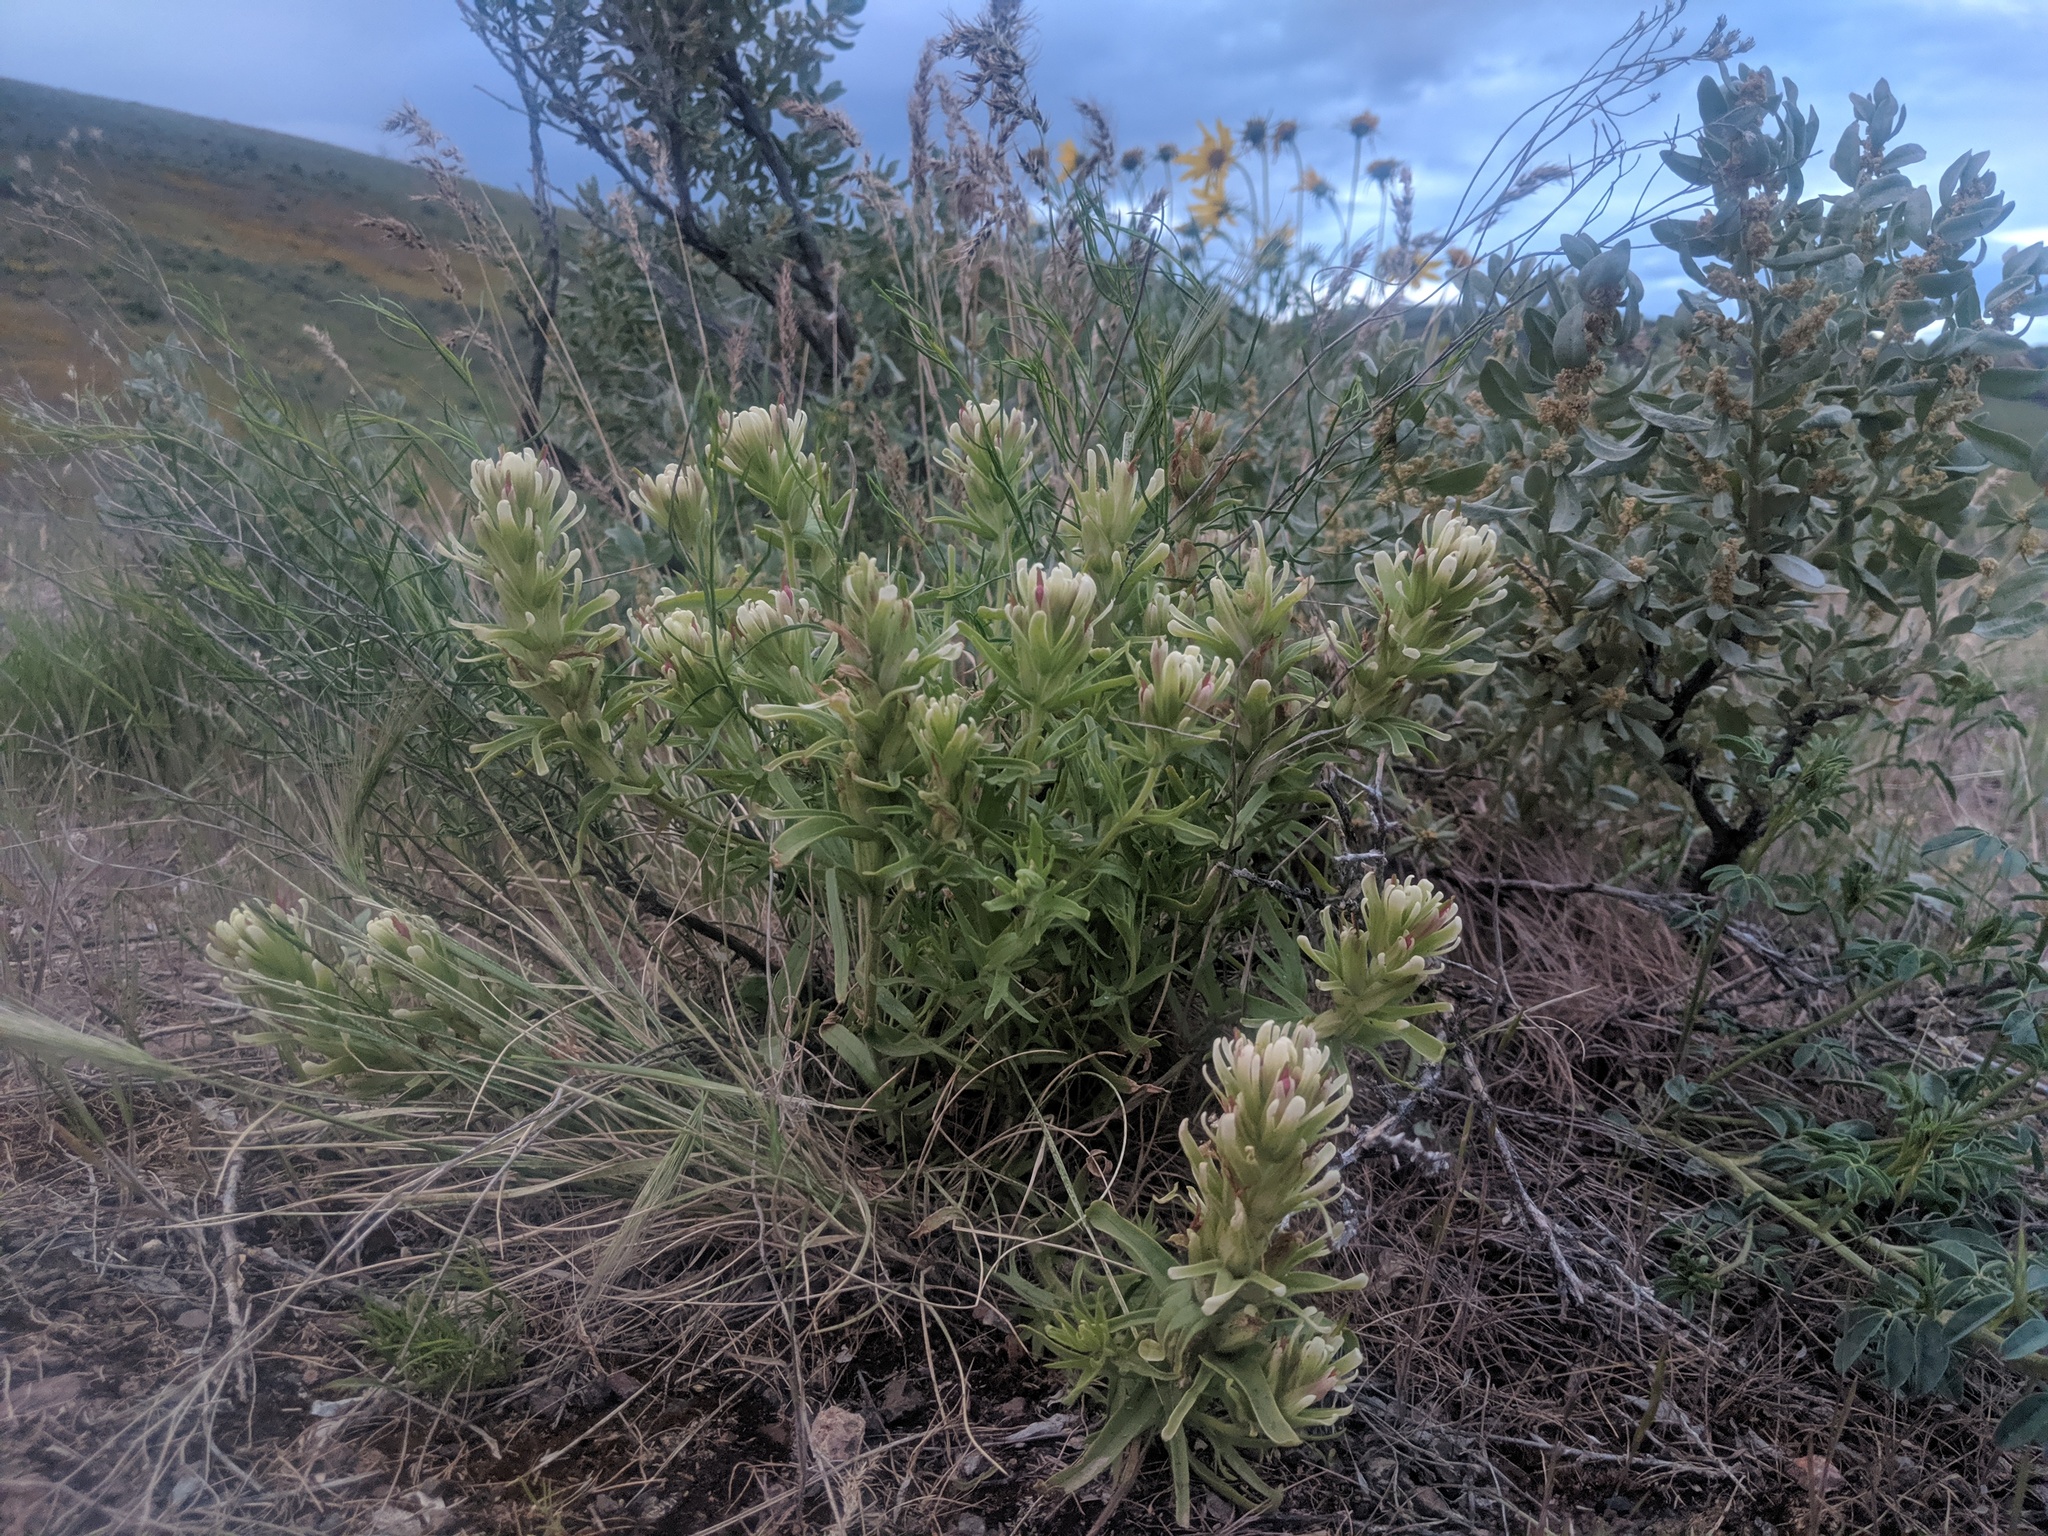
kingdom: Plantae
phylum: Tracheophyta
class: Magnoliopsida
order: Lamiales
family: Orobanchaceae
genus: Castilleja
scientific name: Castilleja xanthotricha
